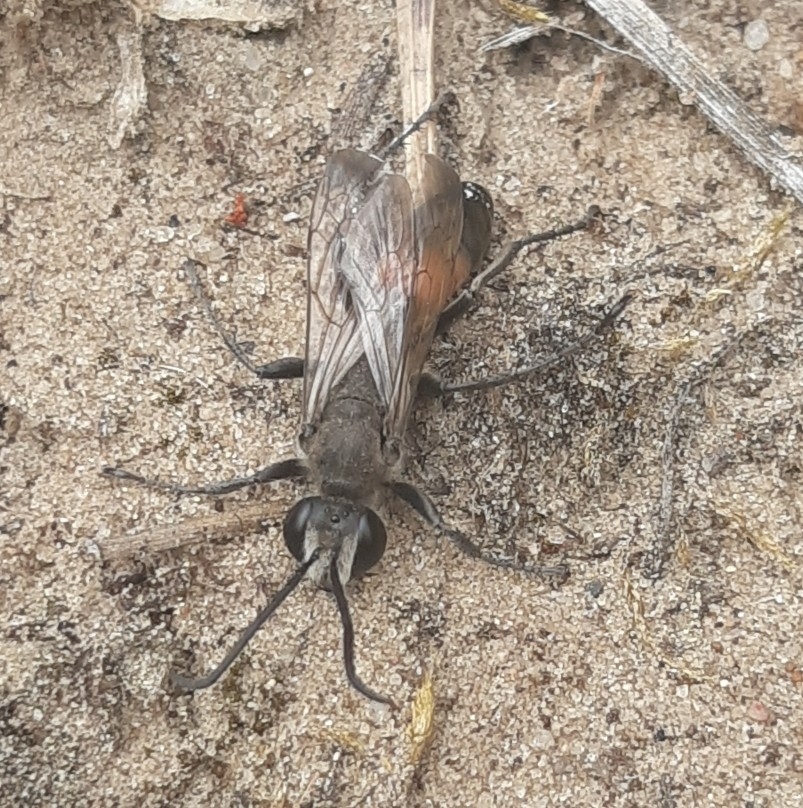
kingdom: Animalia
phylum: Arthropoda
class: Insecta
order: Hymenoptera
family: Sphecidae
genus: Sphex
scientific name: Sphex funerarius
